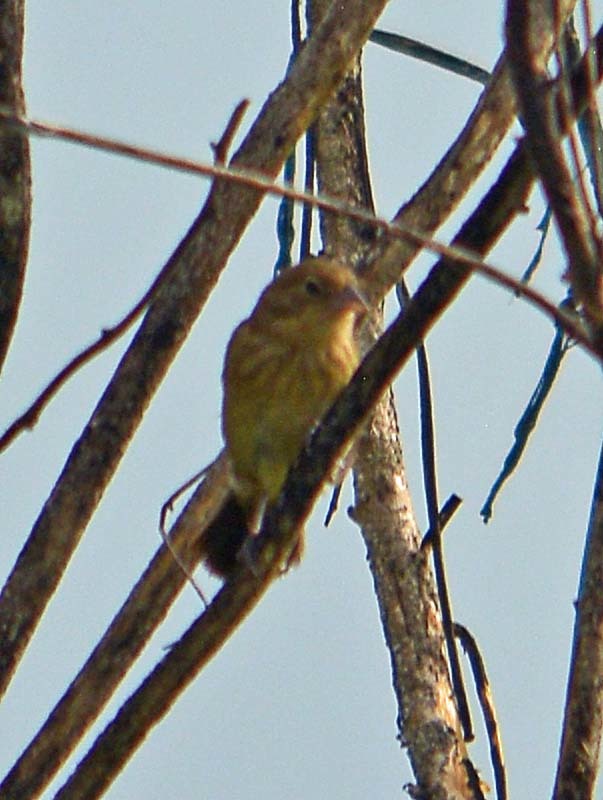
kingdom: Animalia
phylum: Chordata
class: Aves
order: Passeriformes
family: Thraupidae
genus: Volatinia
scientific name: Volatinia jacarina
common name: Blue-black grassquit
